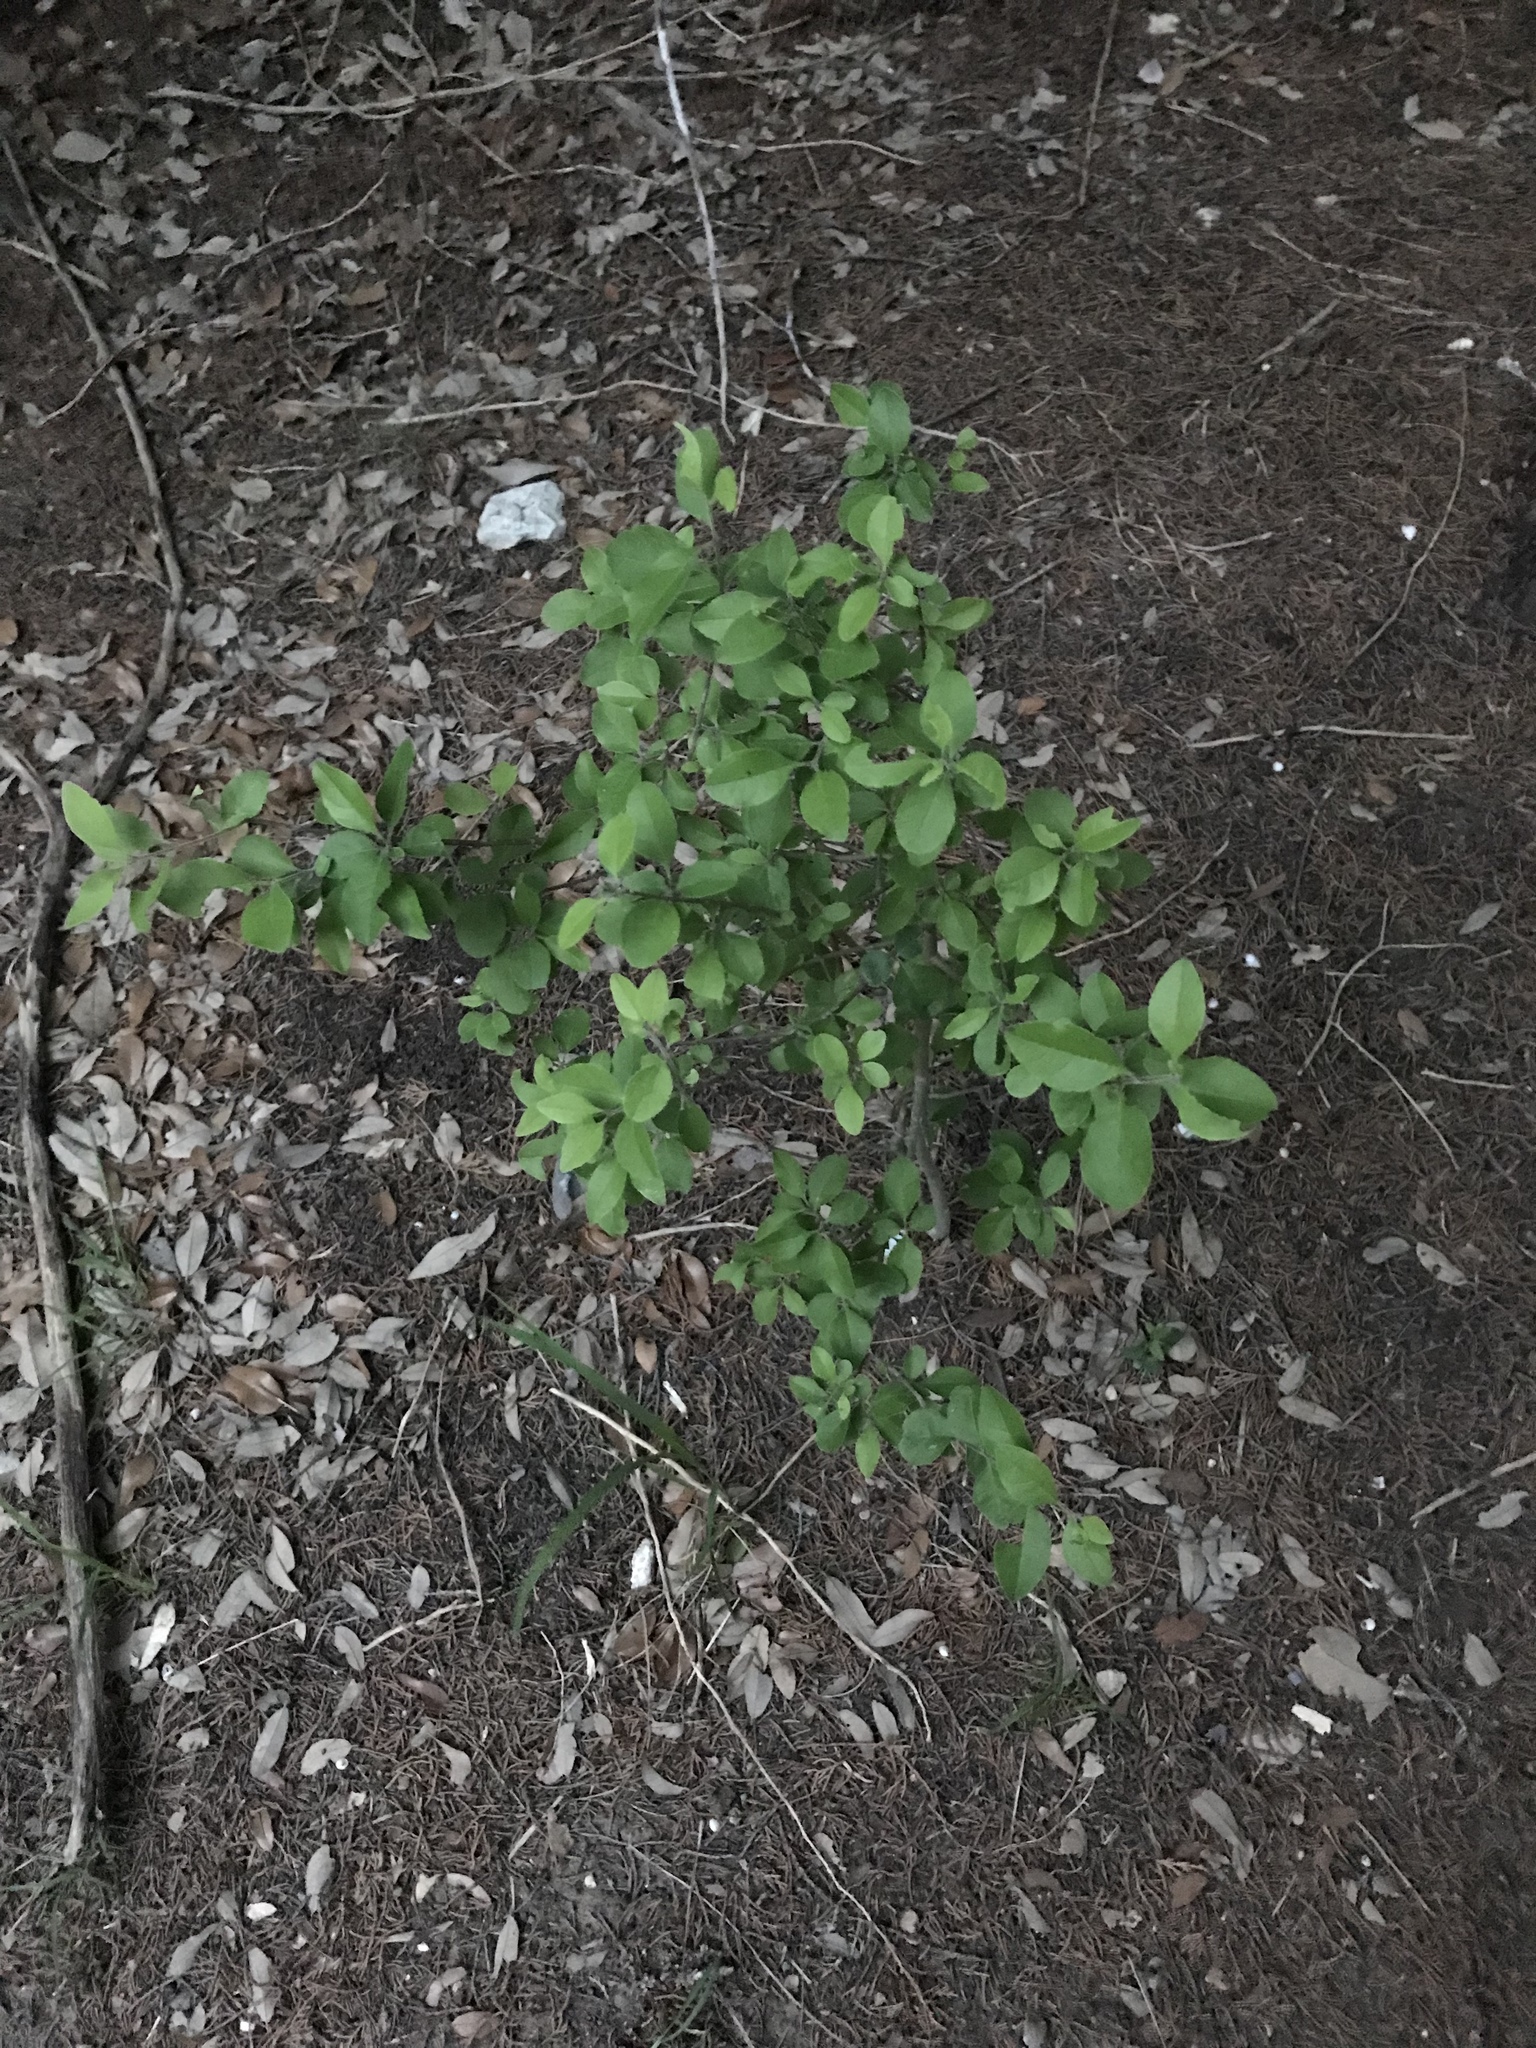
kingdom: Plantae
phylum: Tracheophyta
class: Magnoliopsida
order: Lamiales
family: Oleaceae
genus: Forestiera
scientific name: Forestiera pubescens
